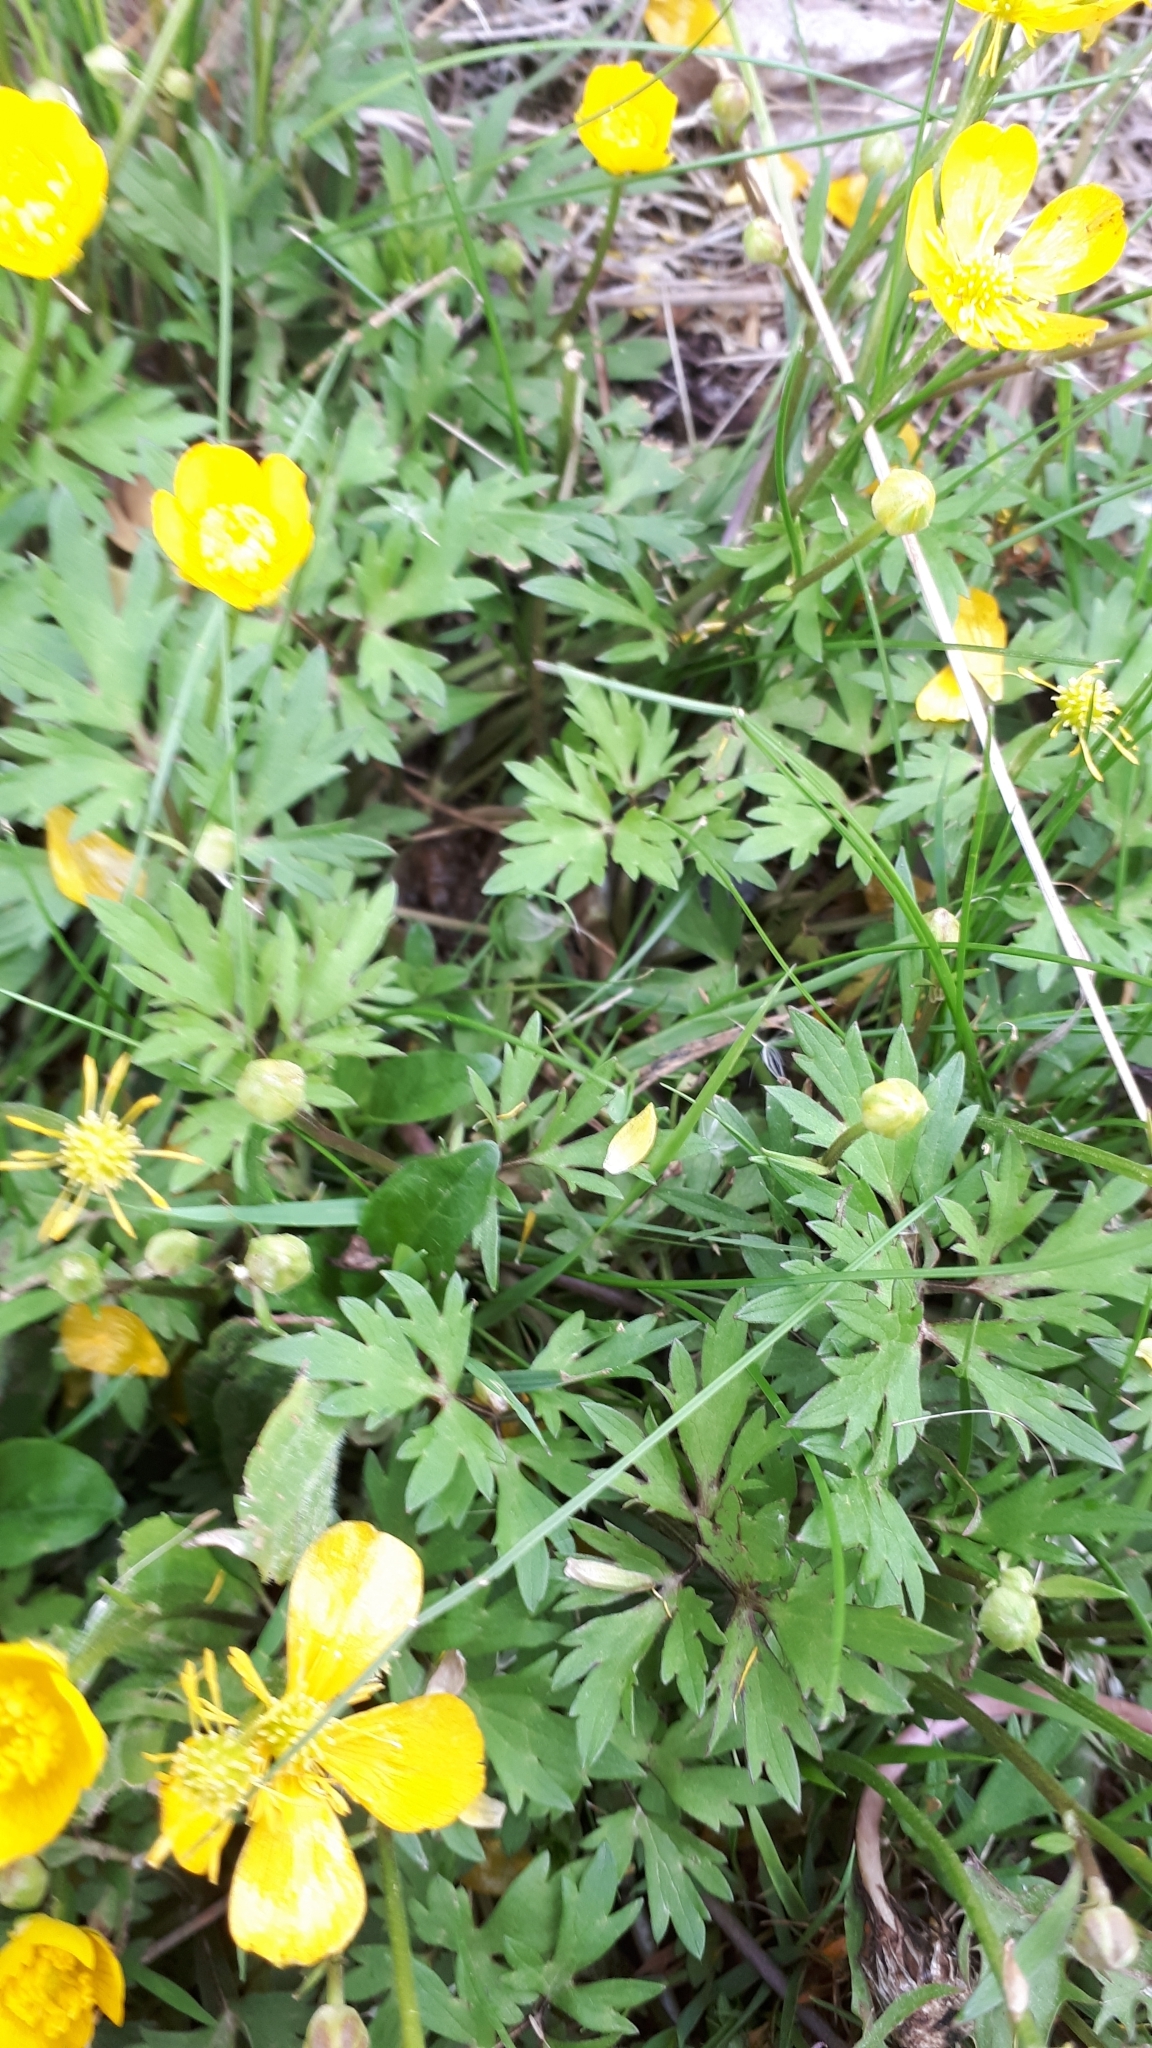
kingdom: Plantae
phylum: Tracheophyta
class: Magnoliopsida
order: Ranunculales
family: Ranunculaceae
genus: Ranunculus
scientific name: Ranunculus repens
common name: Creeping buttercup
